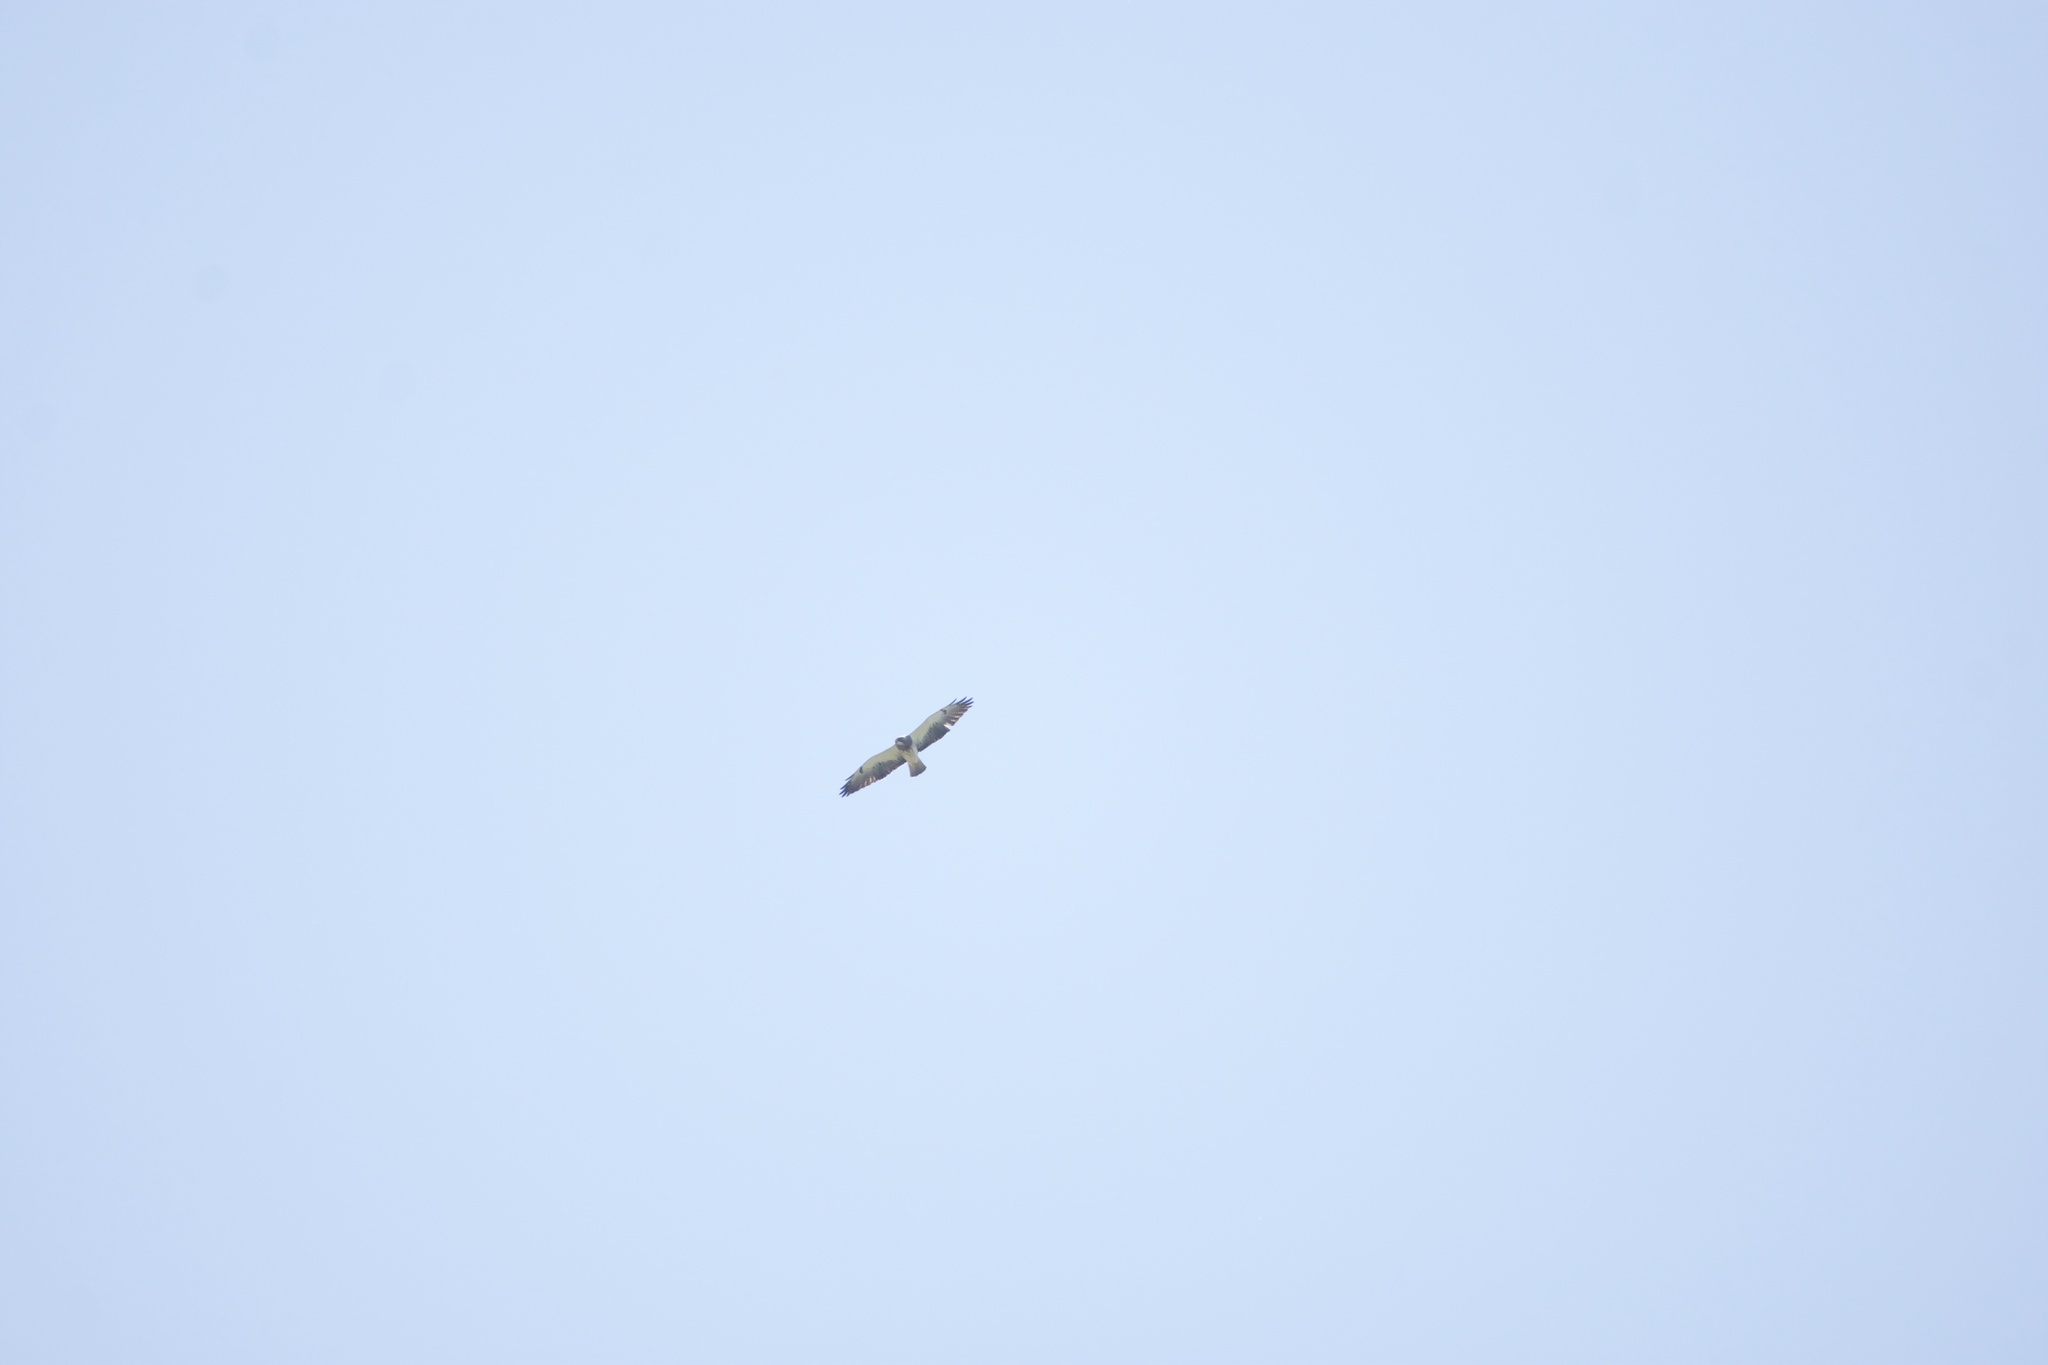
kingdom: Animalia
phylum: Chordata
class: Aves
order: Accipitriformes
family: Accipitridae
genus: Buteo
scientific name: Buteo swainsoni
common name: Swainson's hawk
